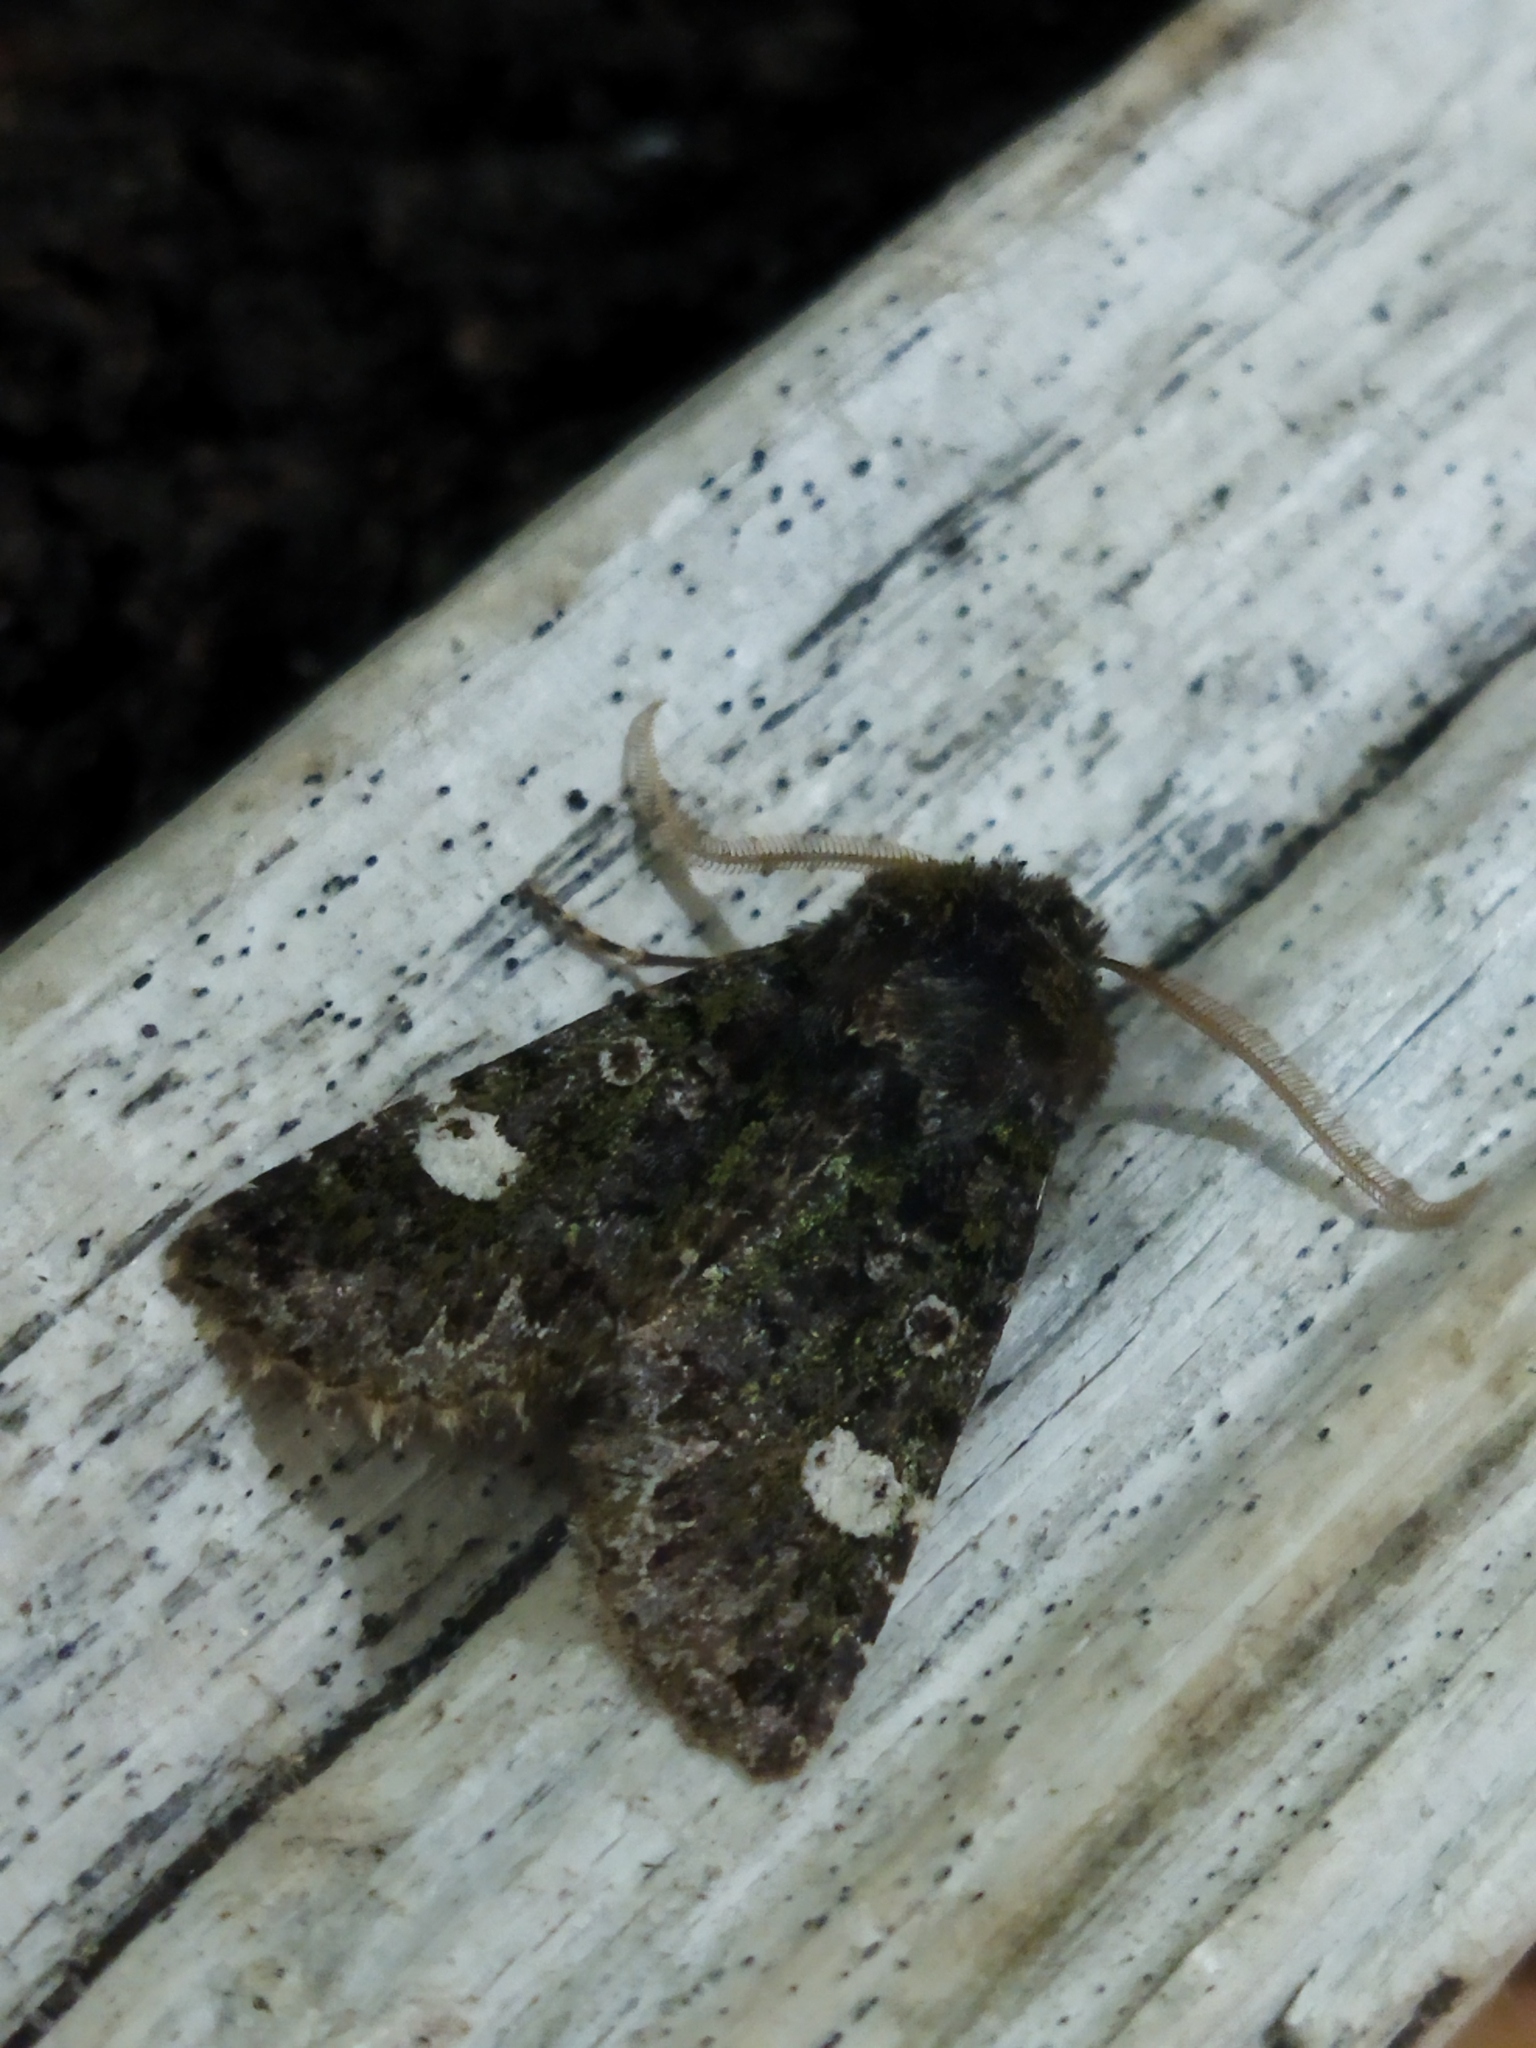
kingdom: Animalia
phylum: Arthropoda
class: Insecta
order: Lepidoptera
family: Noctuidae
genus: Valeria
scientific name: Valeria oleagina
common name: Green-brindled dot
